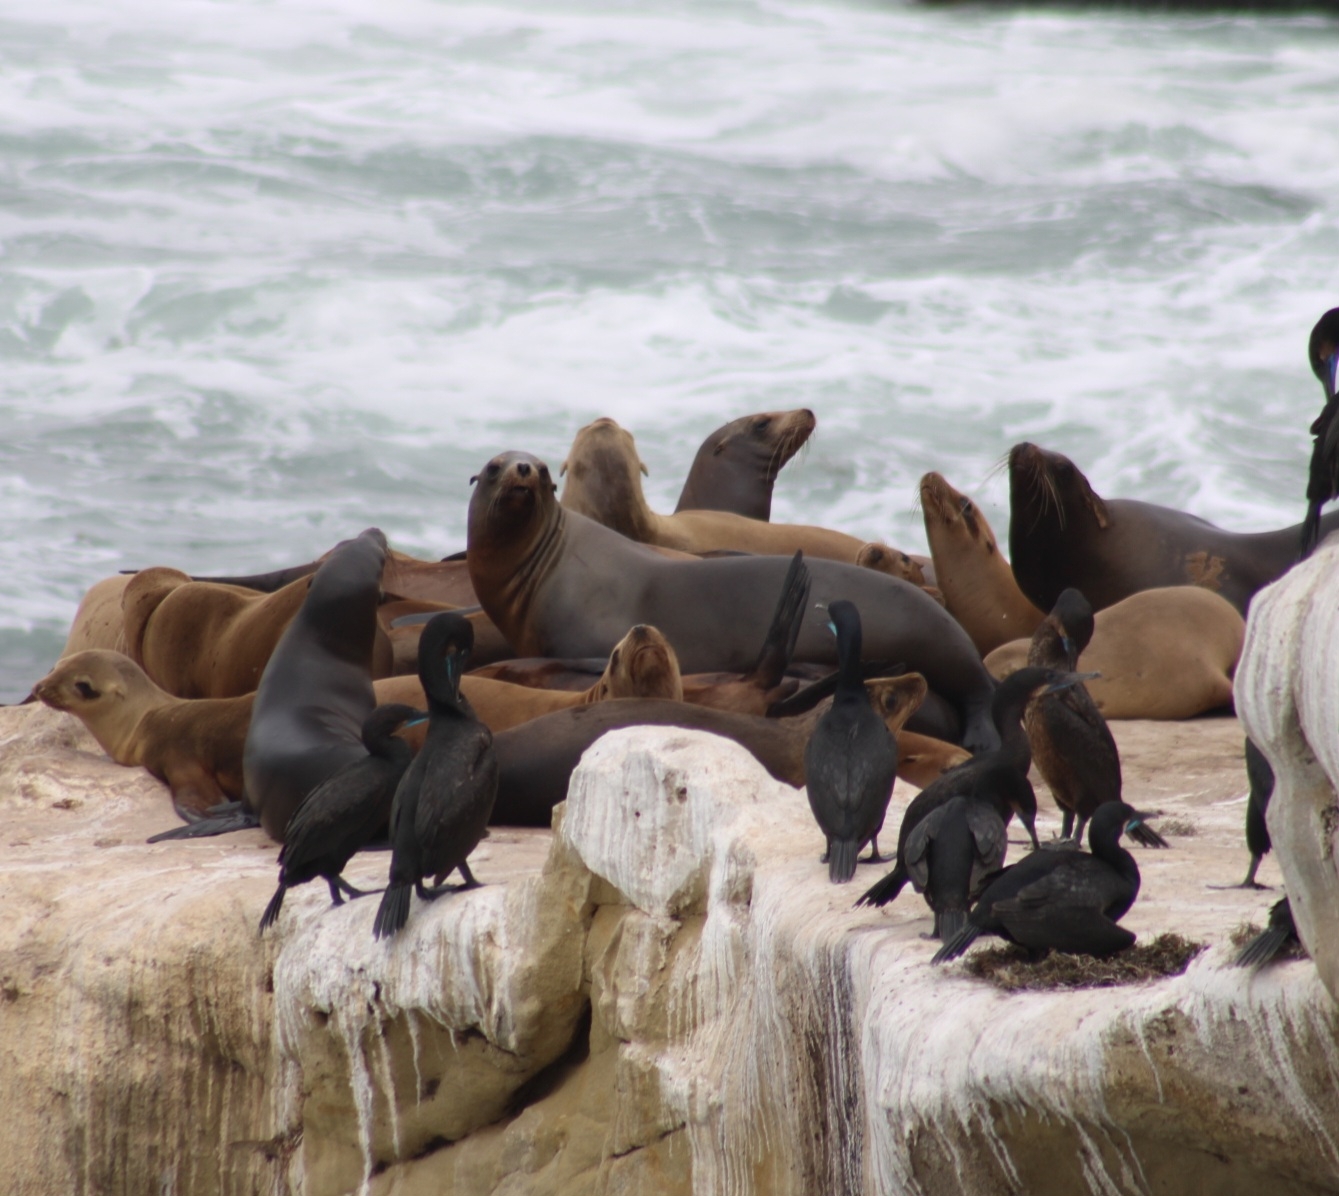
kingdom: Animalia
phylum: Chordata
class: Mammalia
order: Carnivora
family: Otariidae
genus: Zalophus
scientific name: Zalophus californianus
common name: California sea lion
